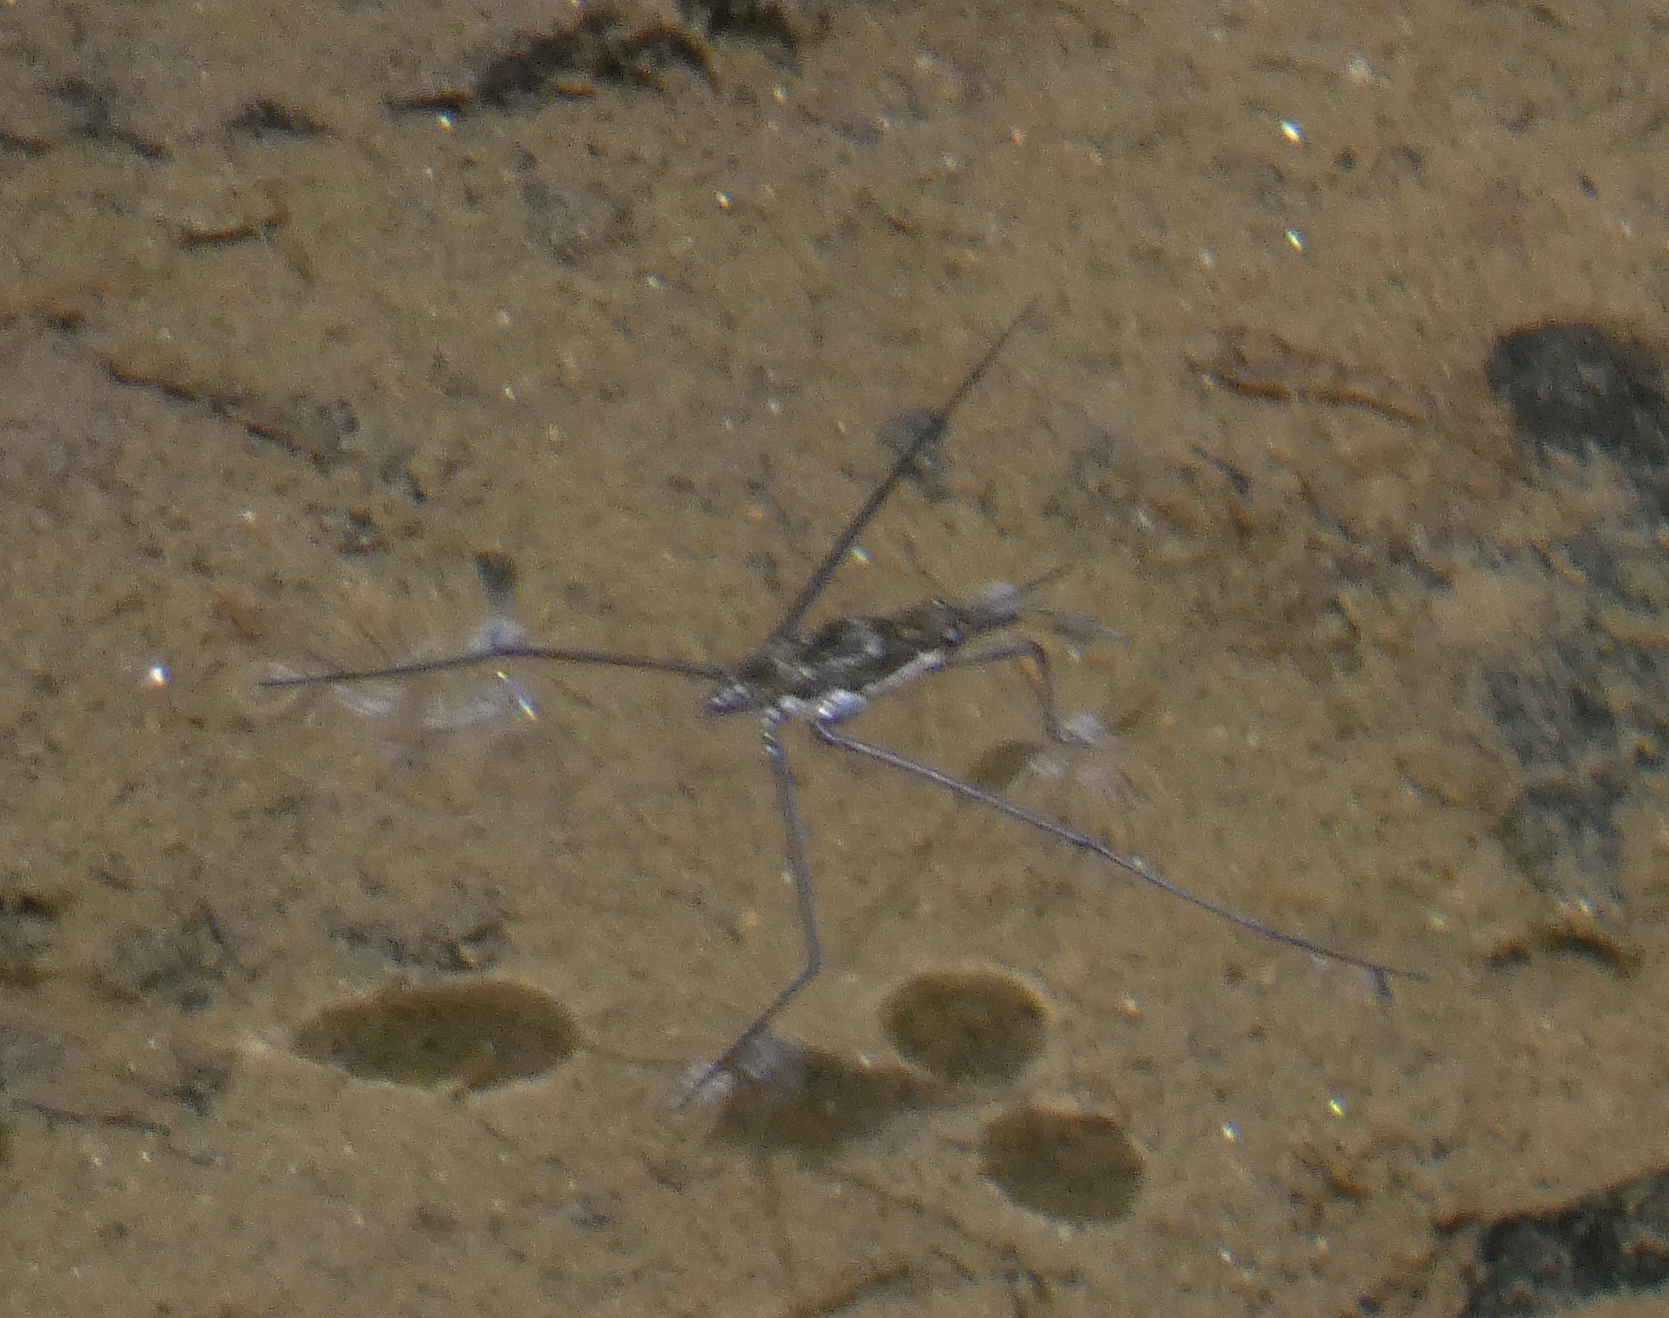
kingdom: Animalia
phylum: Arthropoda
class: Insecta
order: Hemiptera
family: Gerridae
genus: Aquarius
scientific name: Aquarius
